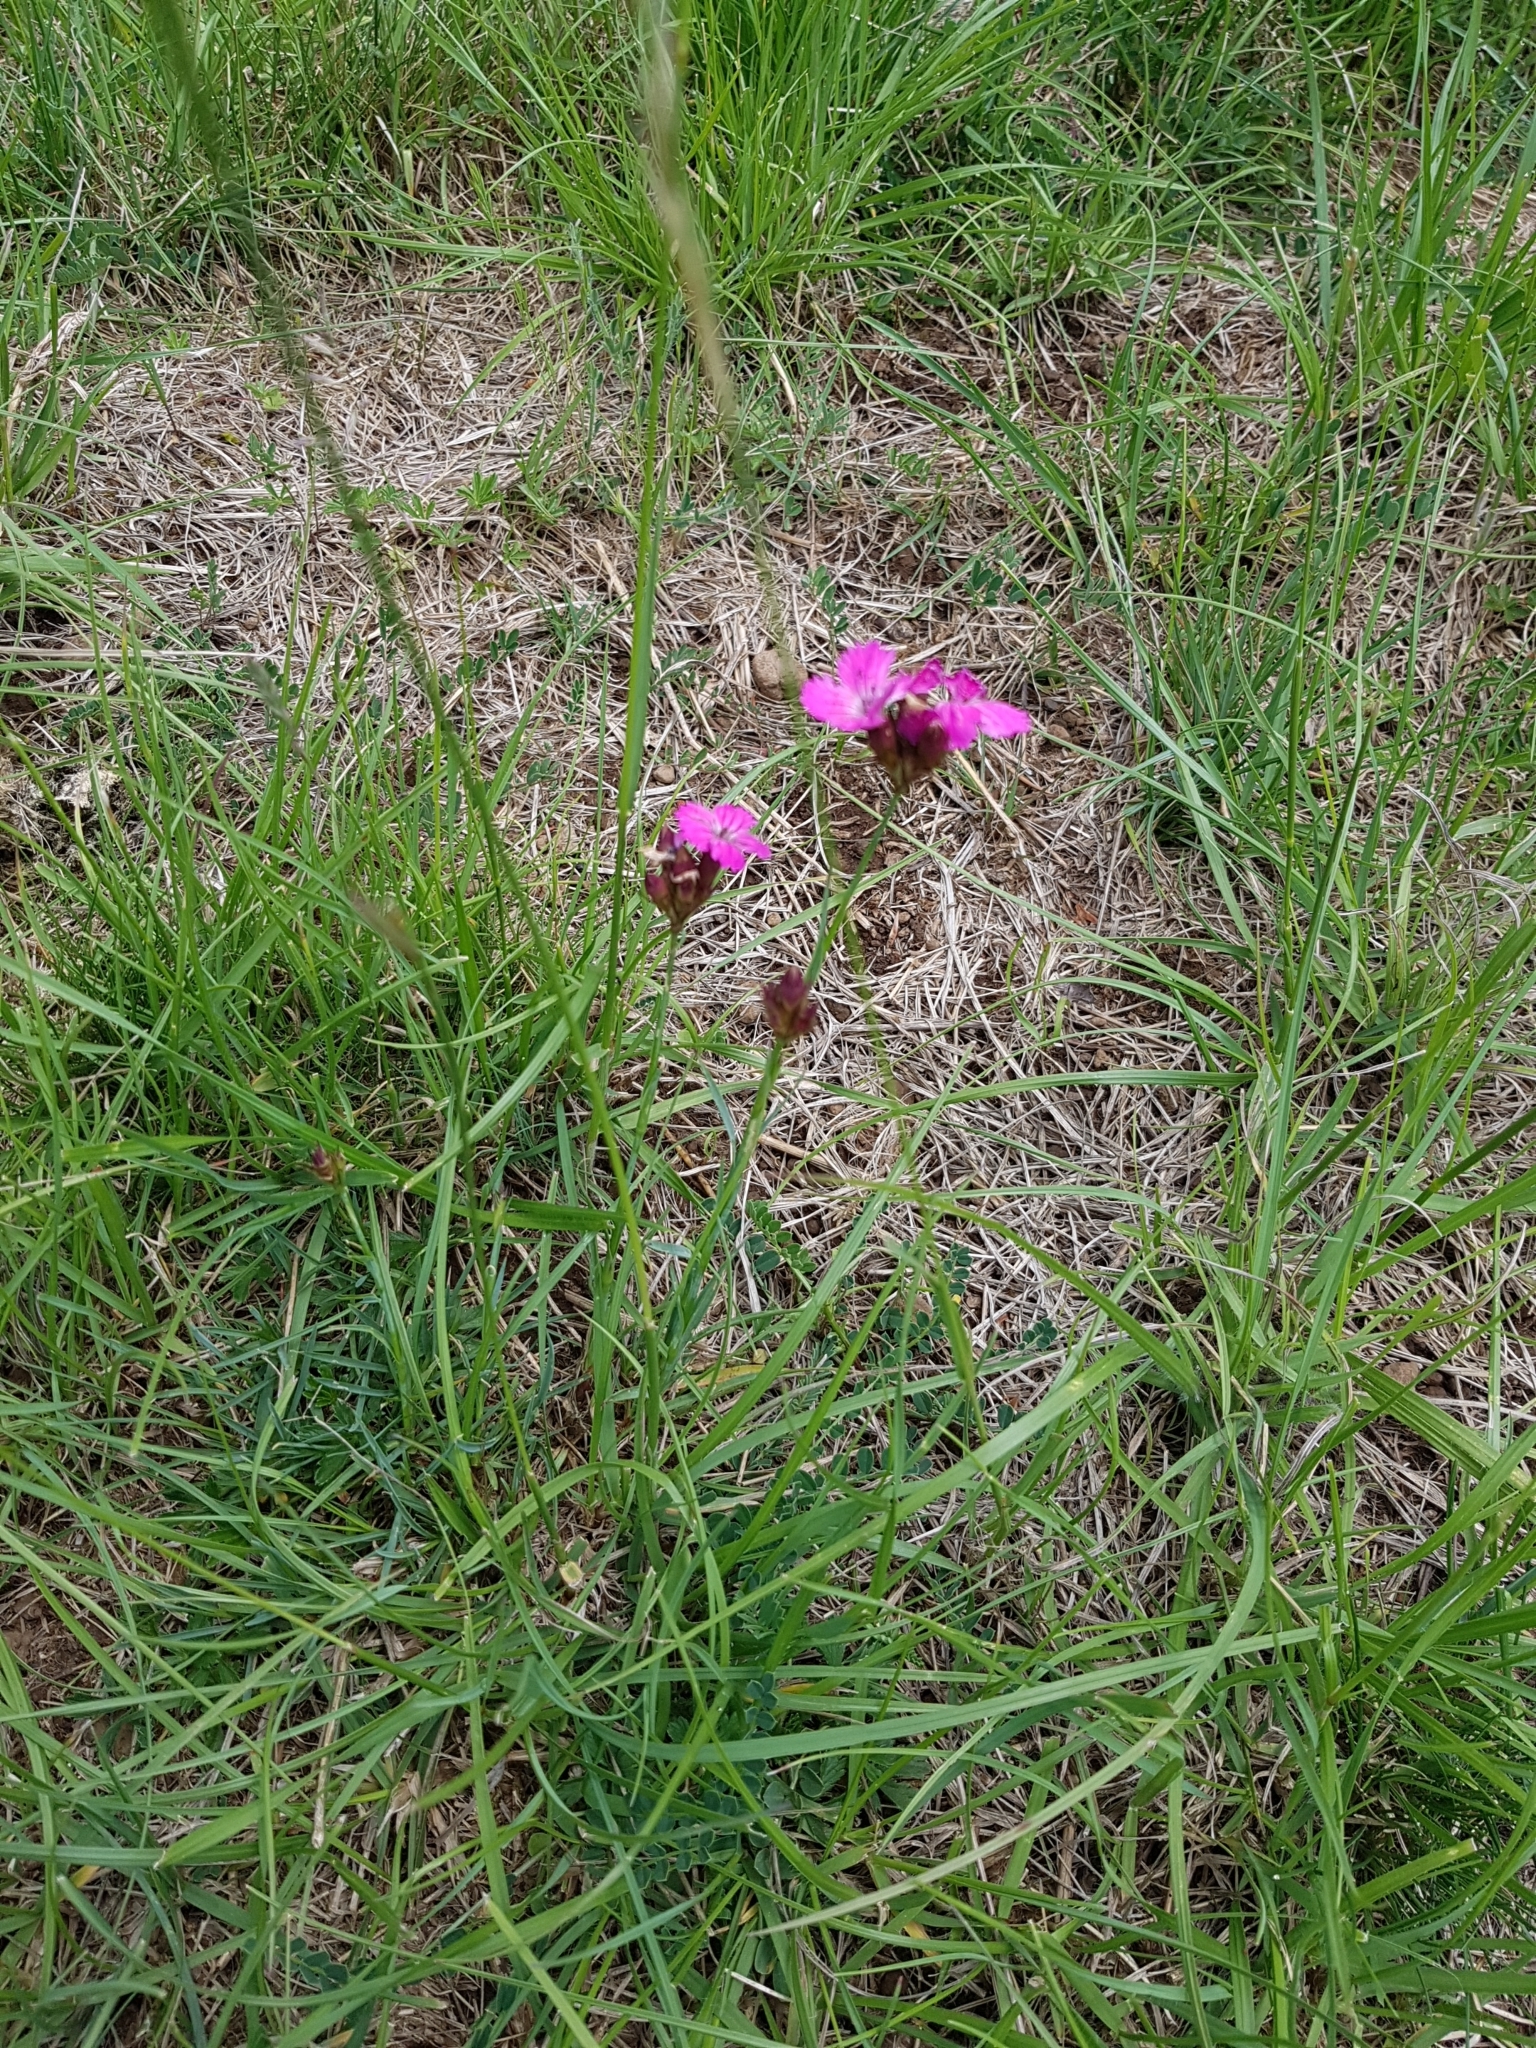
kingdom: Plantae
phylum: Tracheophyta
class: Magnoliopsida
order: Caryophyllales
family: Caryophyllaceae
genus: Dianthus
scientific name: Dianthus carthusianorum
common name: Carthusian pink
